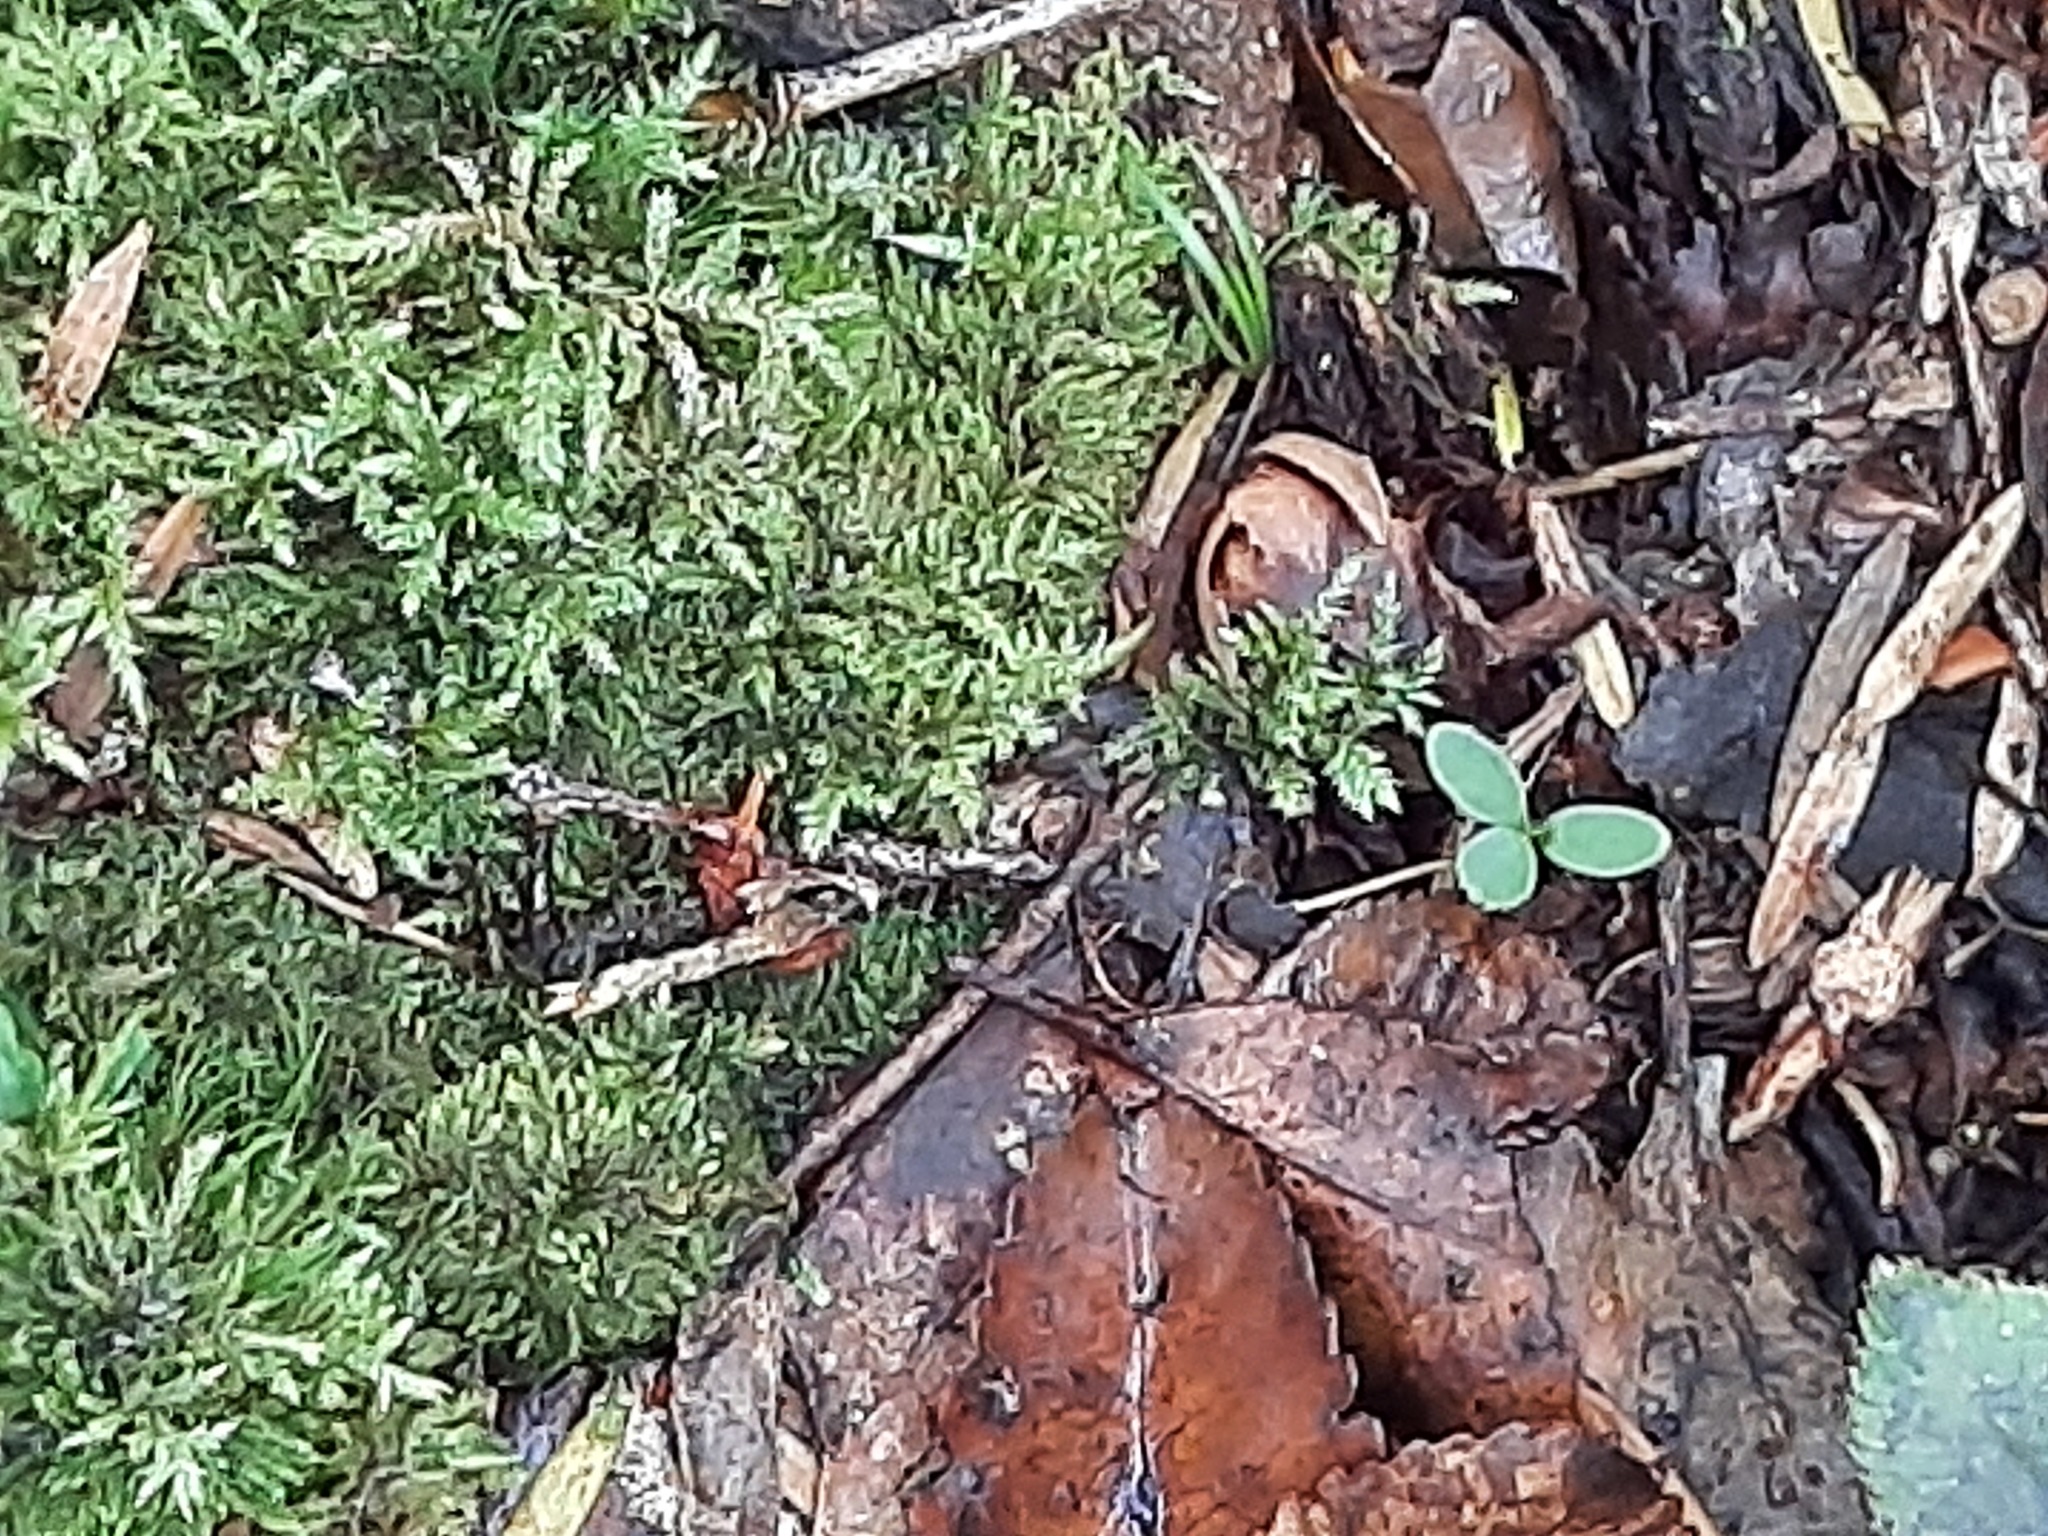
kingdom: Plantae
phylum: Tracheophyta
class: Magnoliopsida
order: Santalales
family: Mystropetalaceae
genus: Dactylanthus
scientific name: Dactylanthus taylorii
